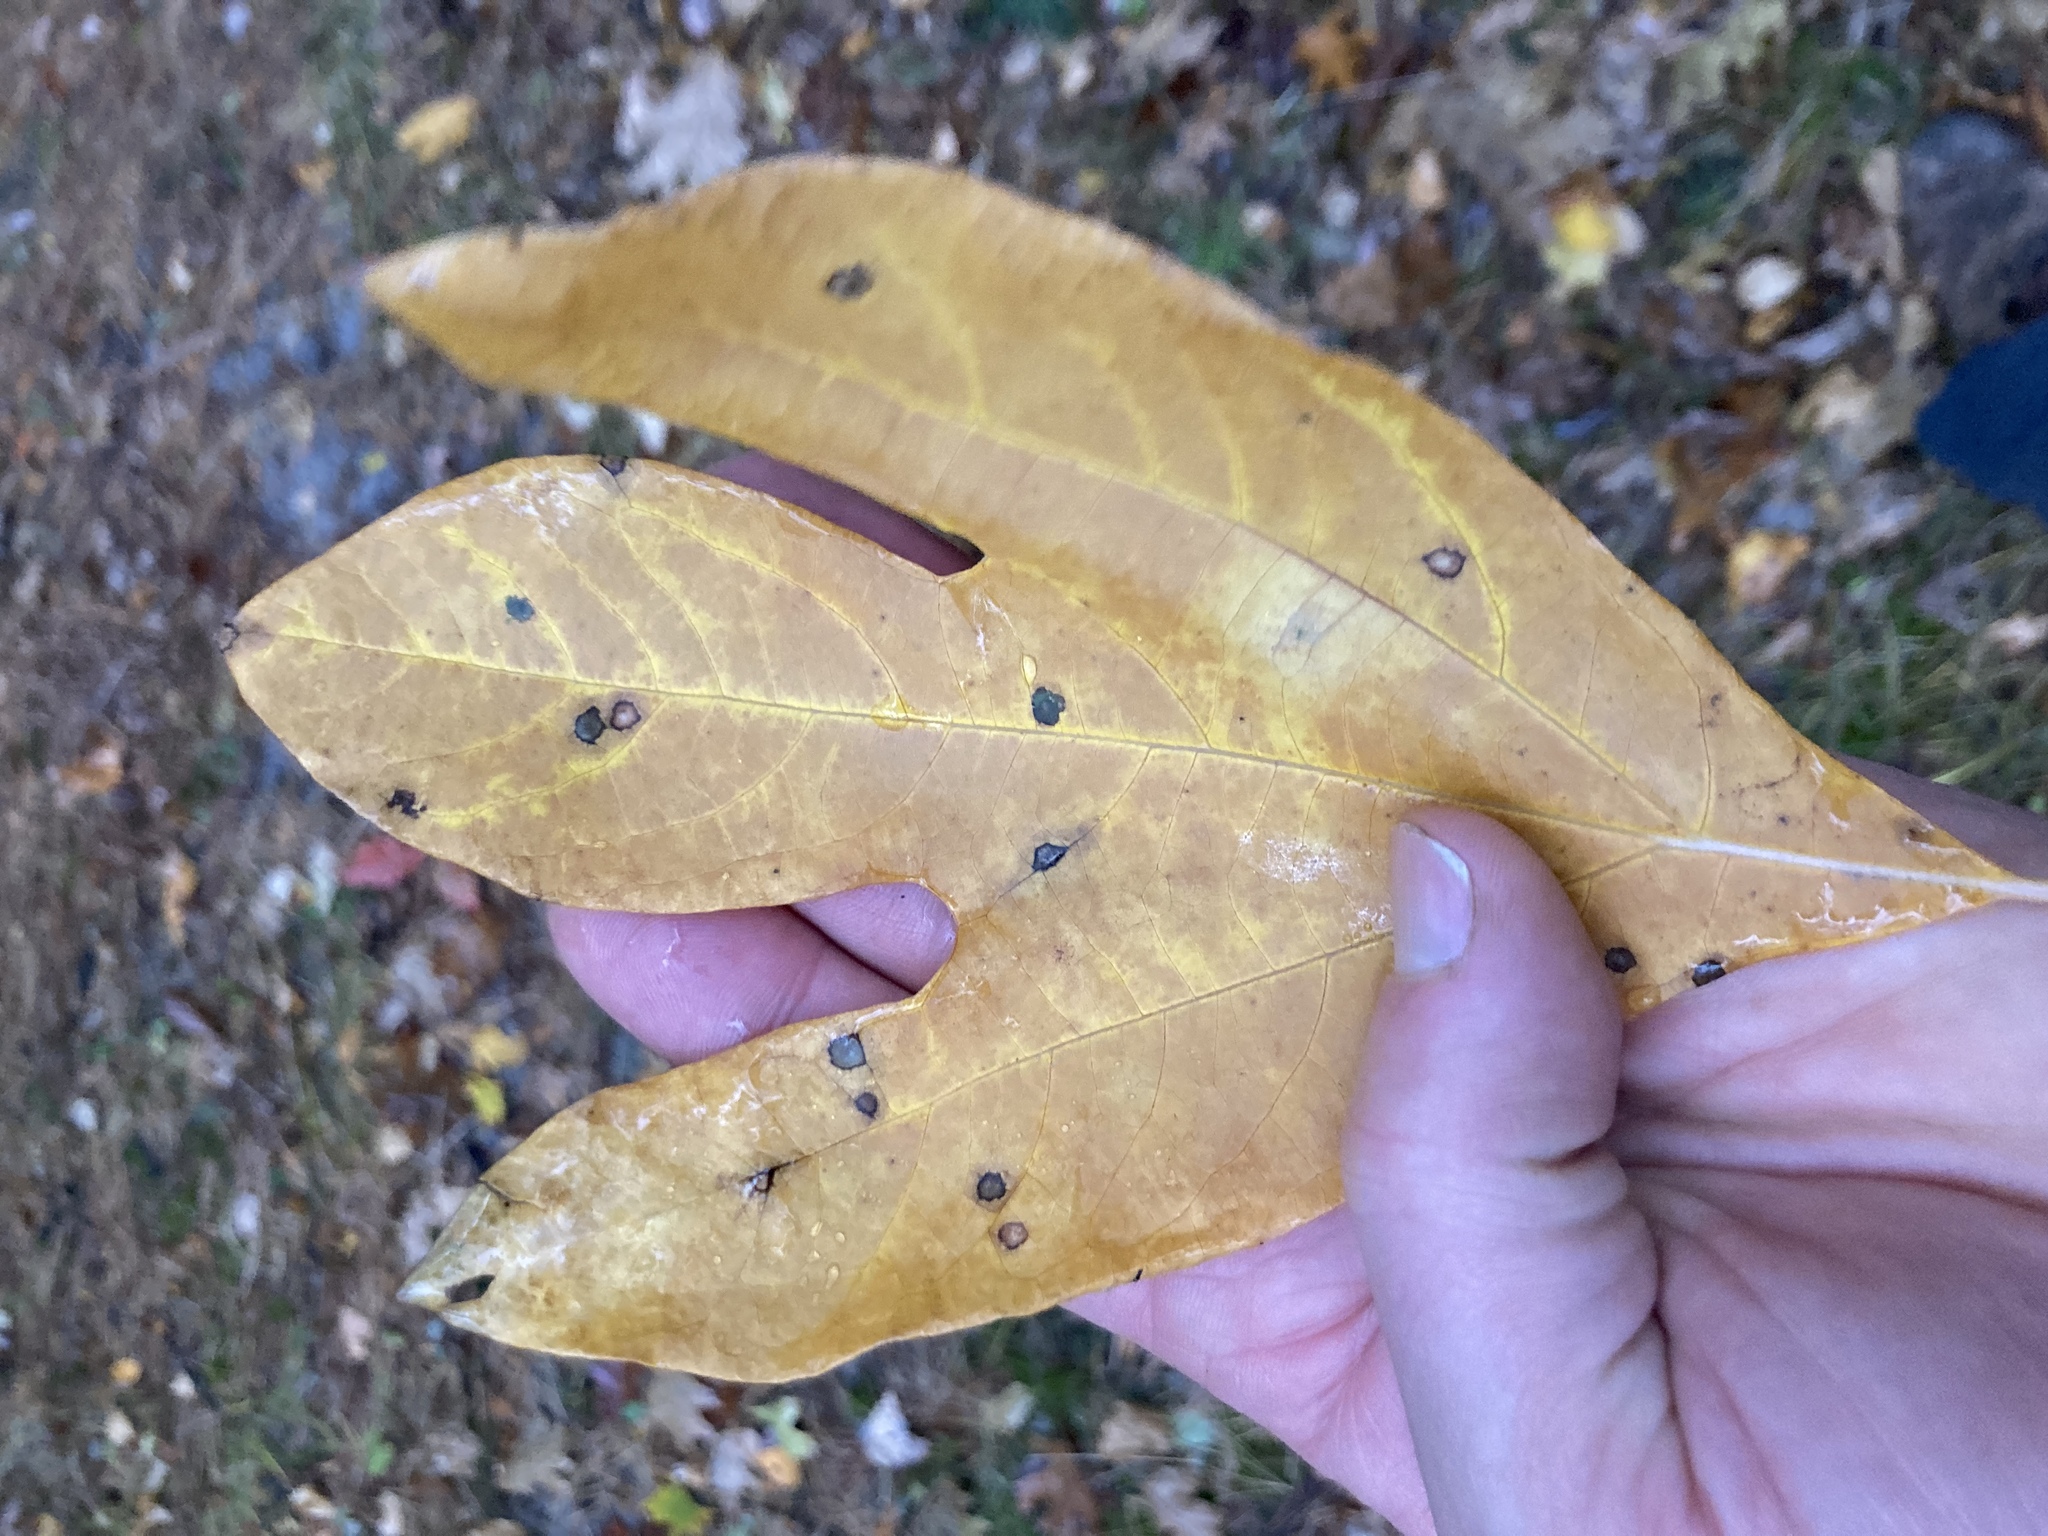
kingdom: Plantae
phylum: Tracheophyta
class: Magnoliopsida
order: Laurales
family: Lauraceae
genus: Sassafras
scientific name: Sassafras albidum
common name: Sassafras
